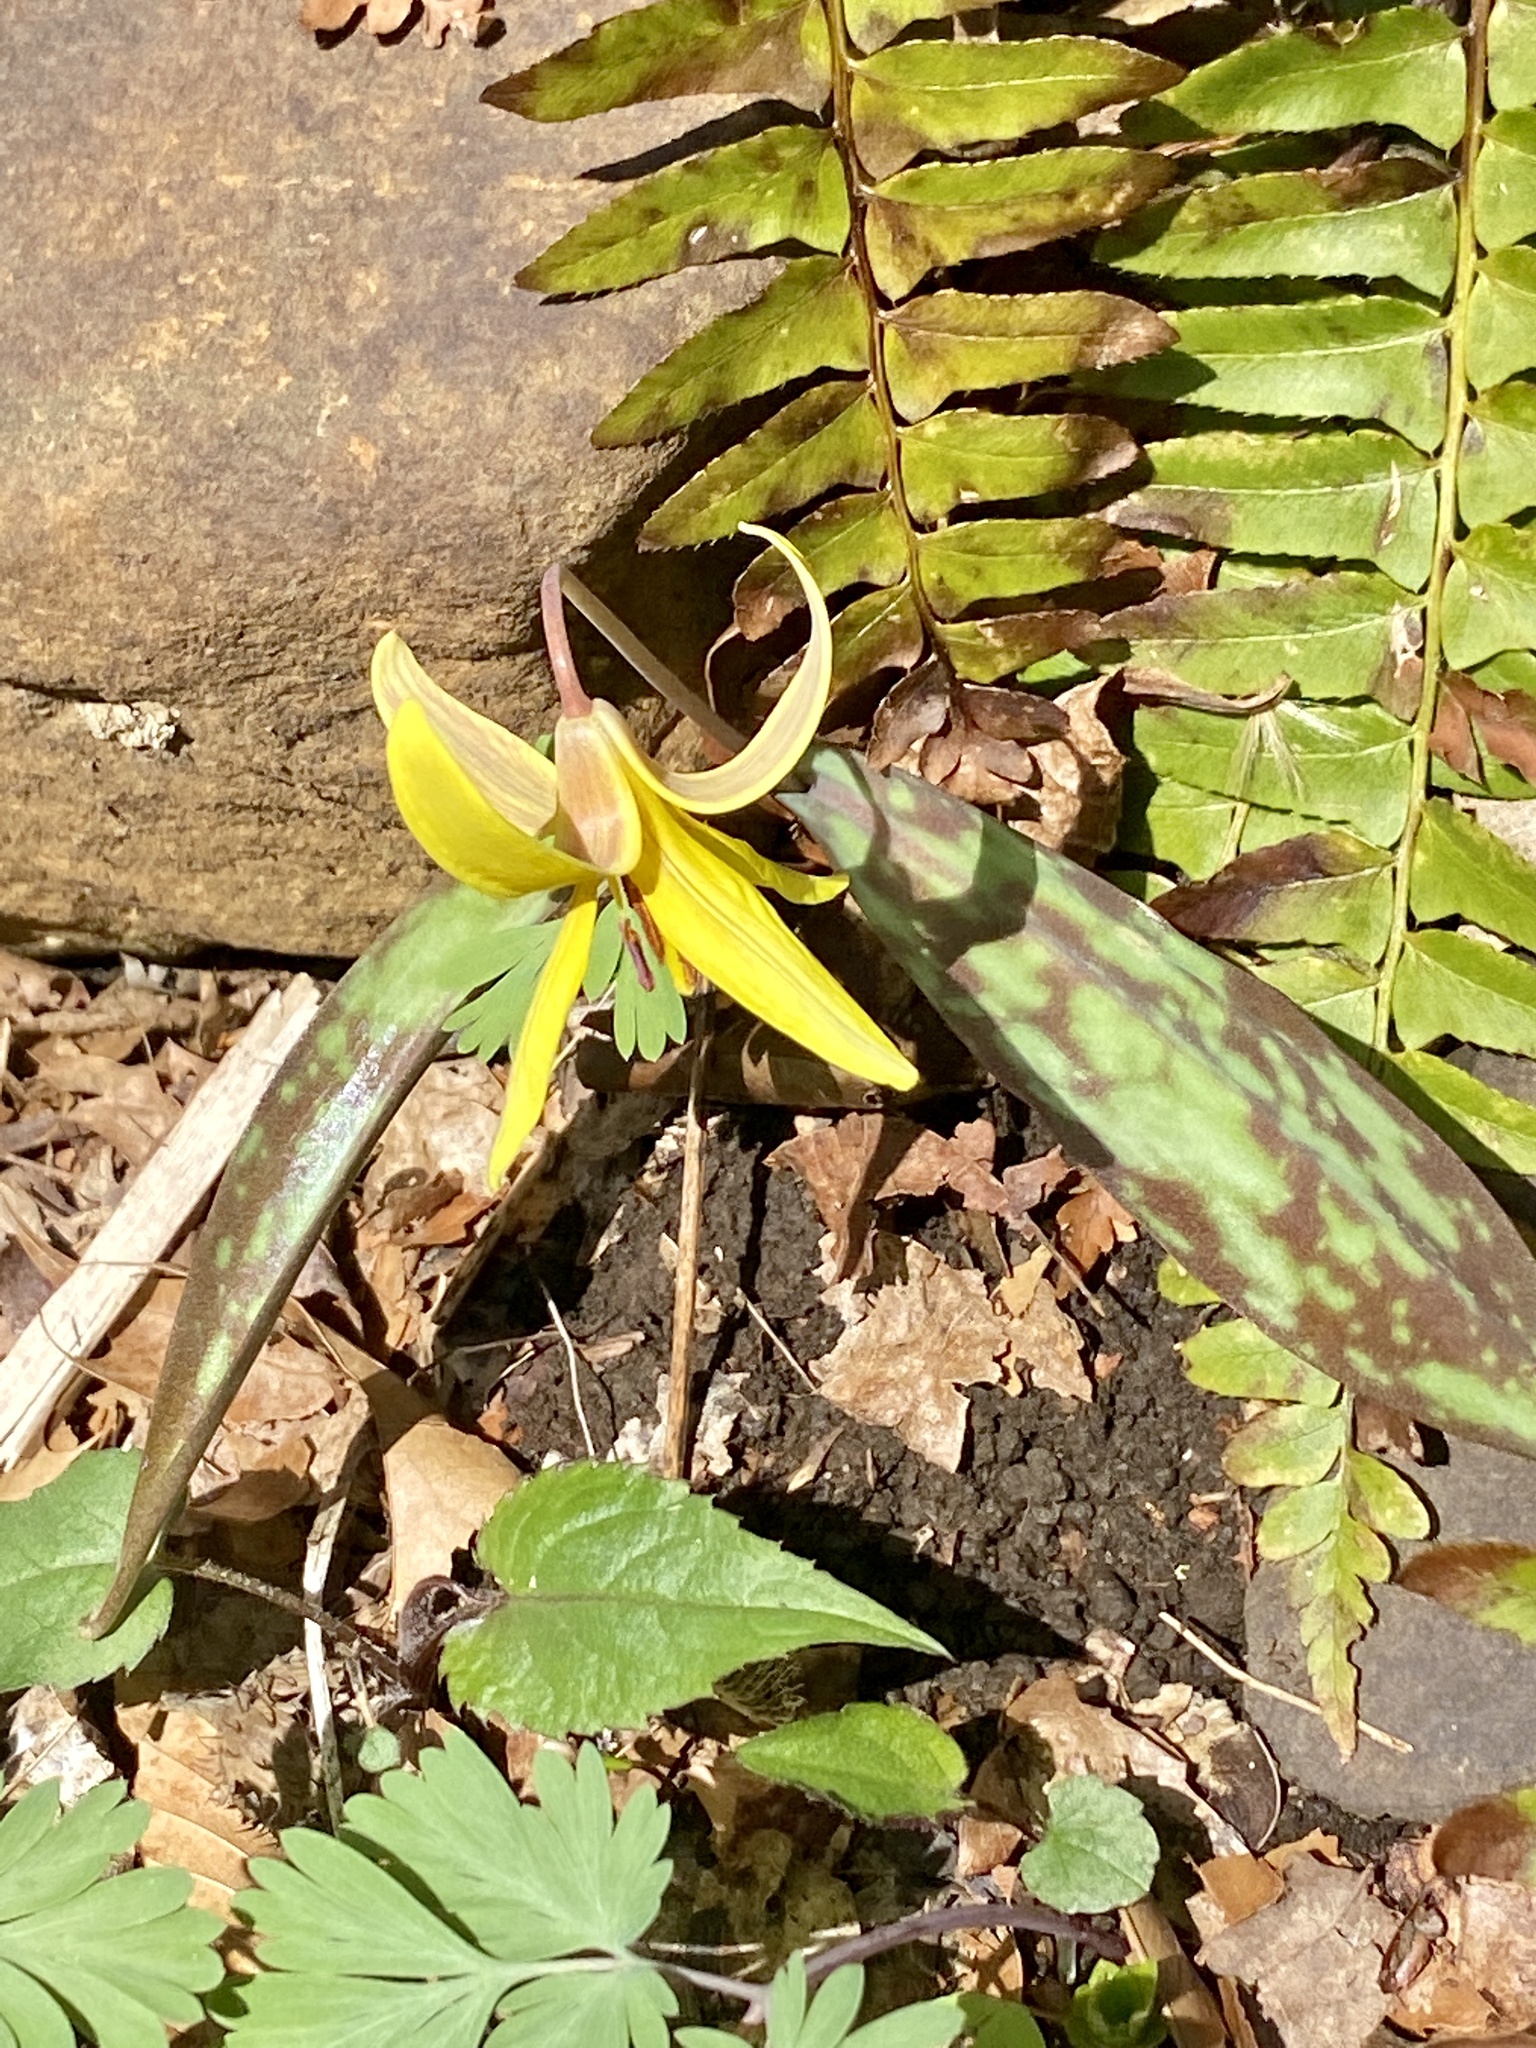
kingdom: Plantae
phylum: Tracheophyta
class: Liliopsida
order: Liliales
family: Liliaceae
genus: Erythronium
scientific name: Erythronium americanum
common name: Yellow adder's-tongue
